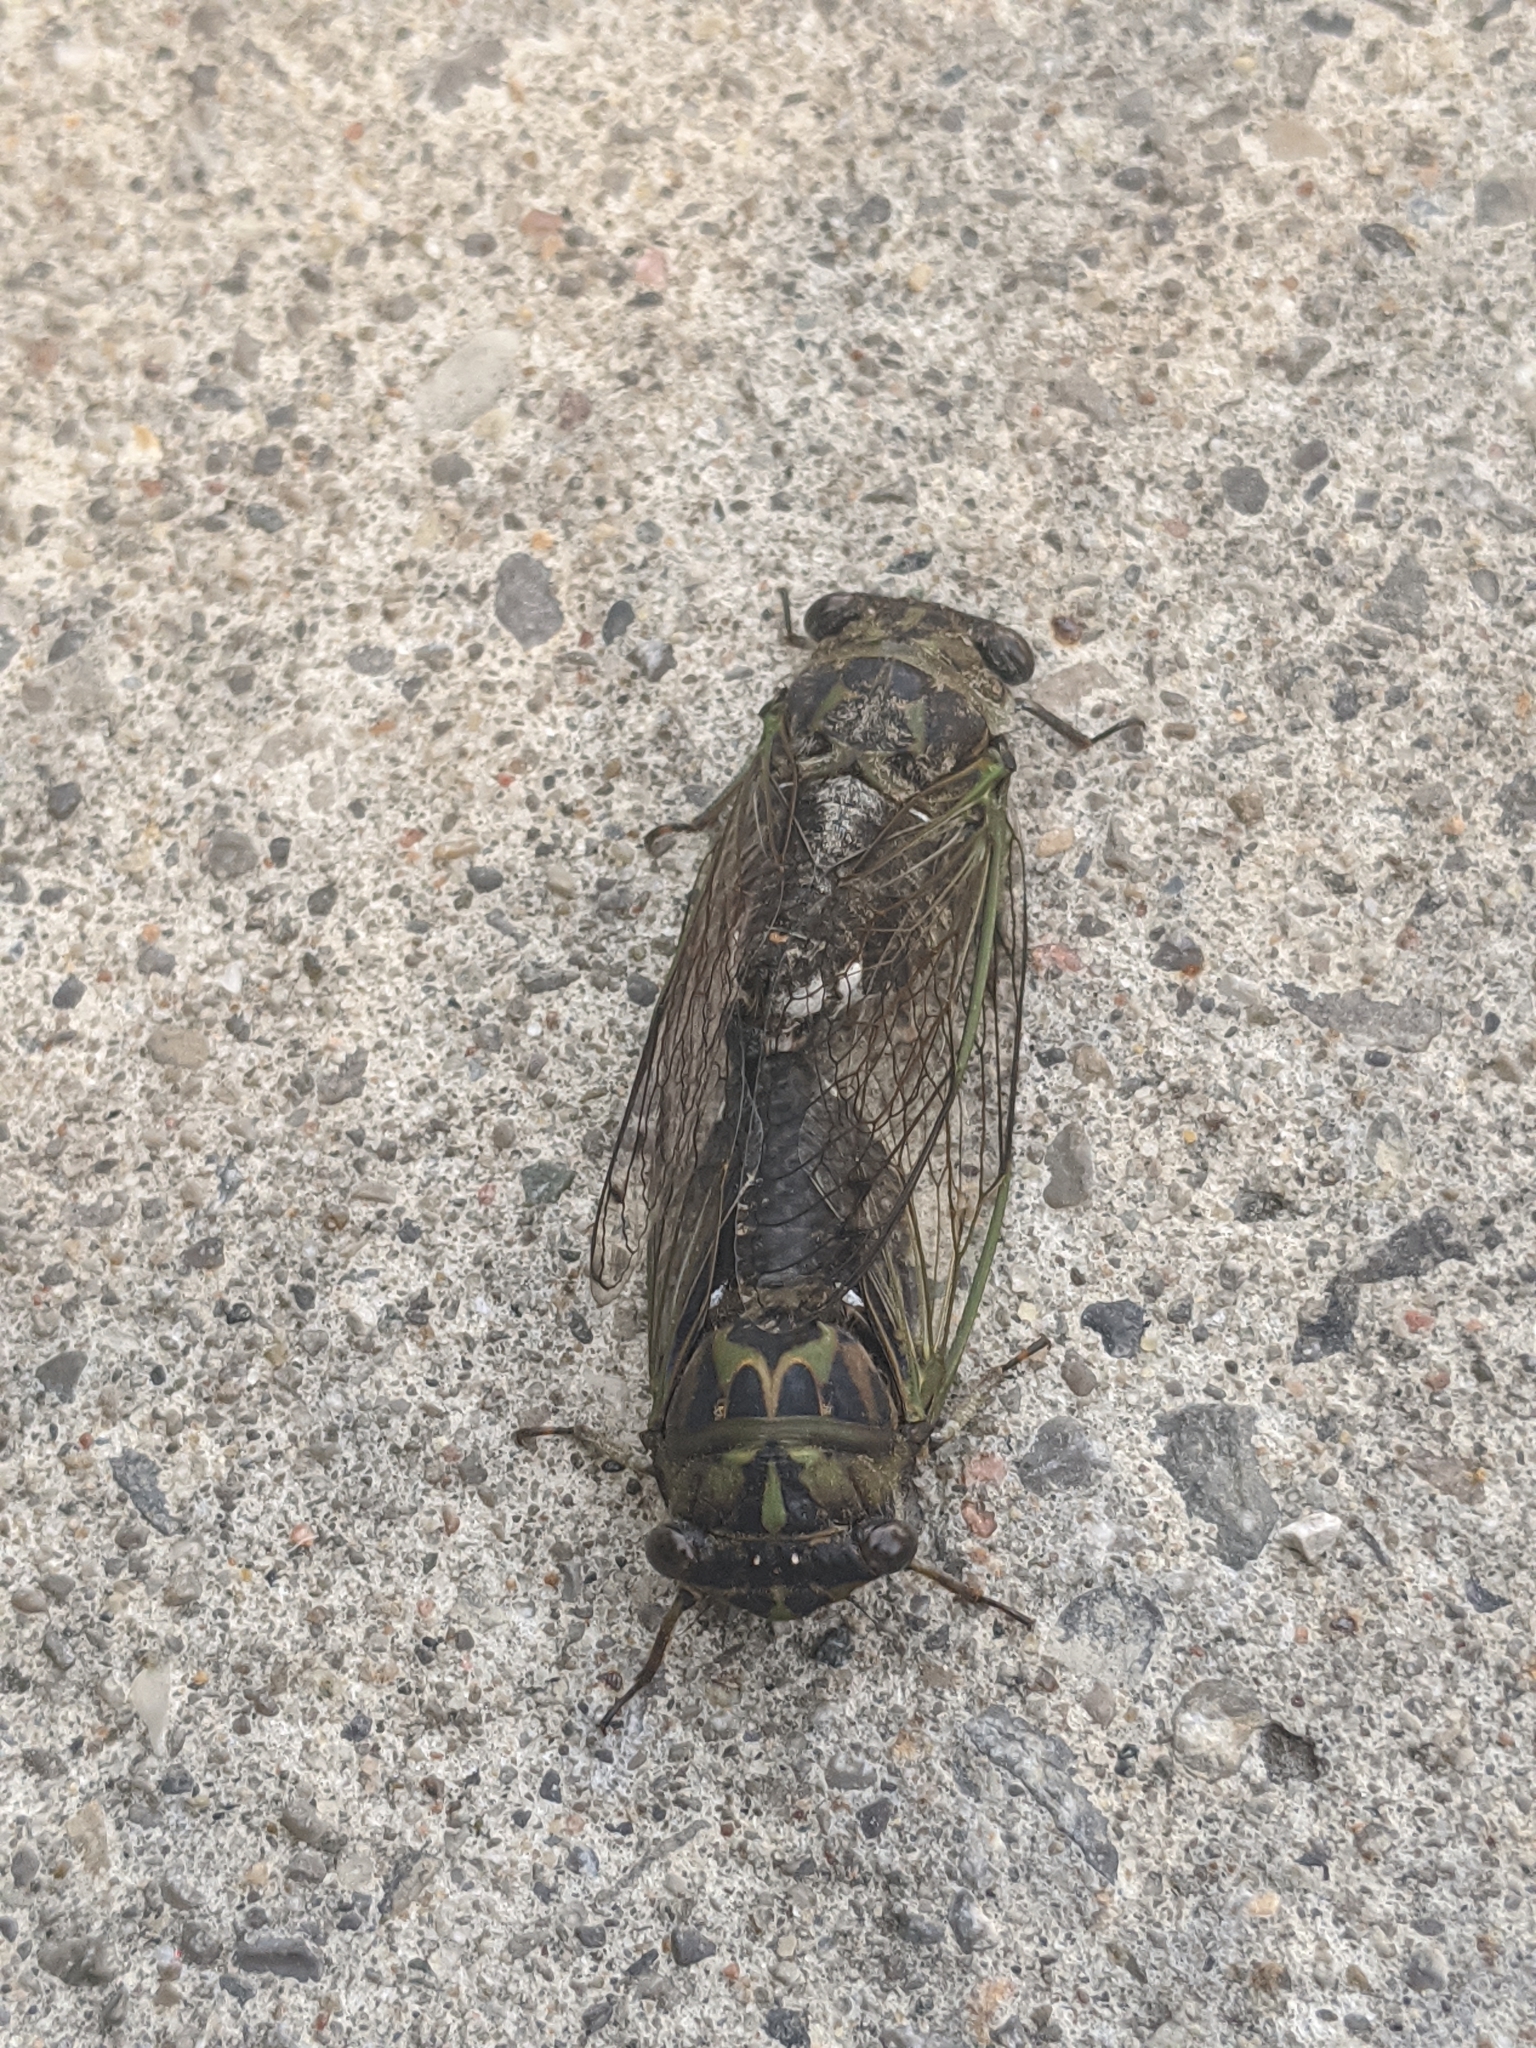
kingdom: Animalia
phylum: Arthropoda
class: Insecta
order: Hemiptera
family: Cicadidae
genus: Neotibicen
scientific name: Neotibicen canicularis
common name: God-day cicada
